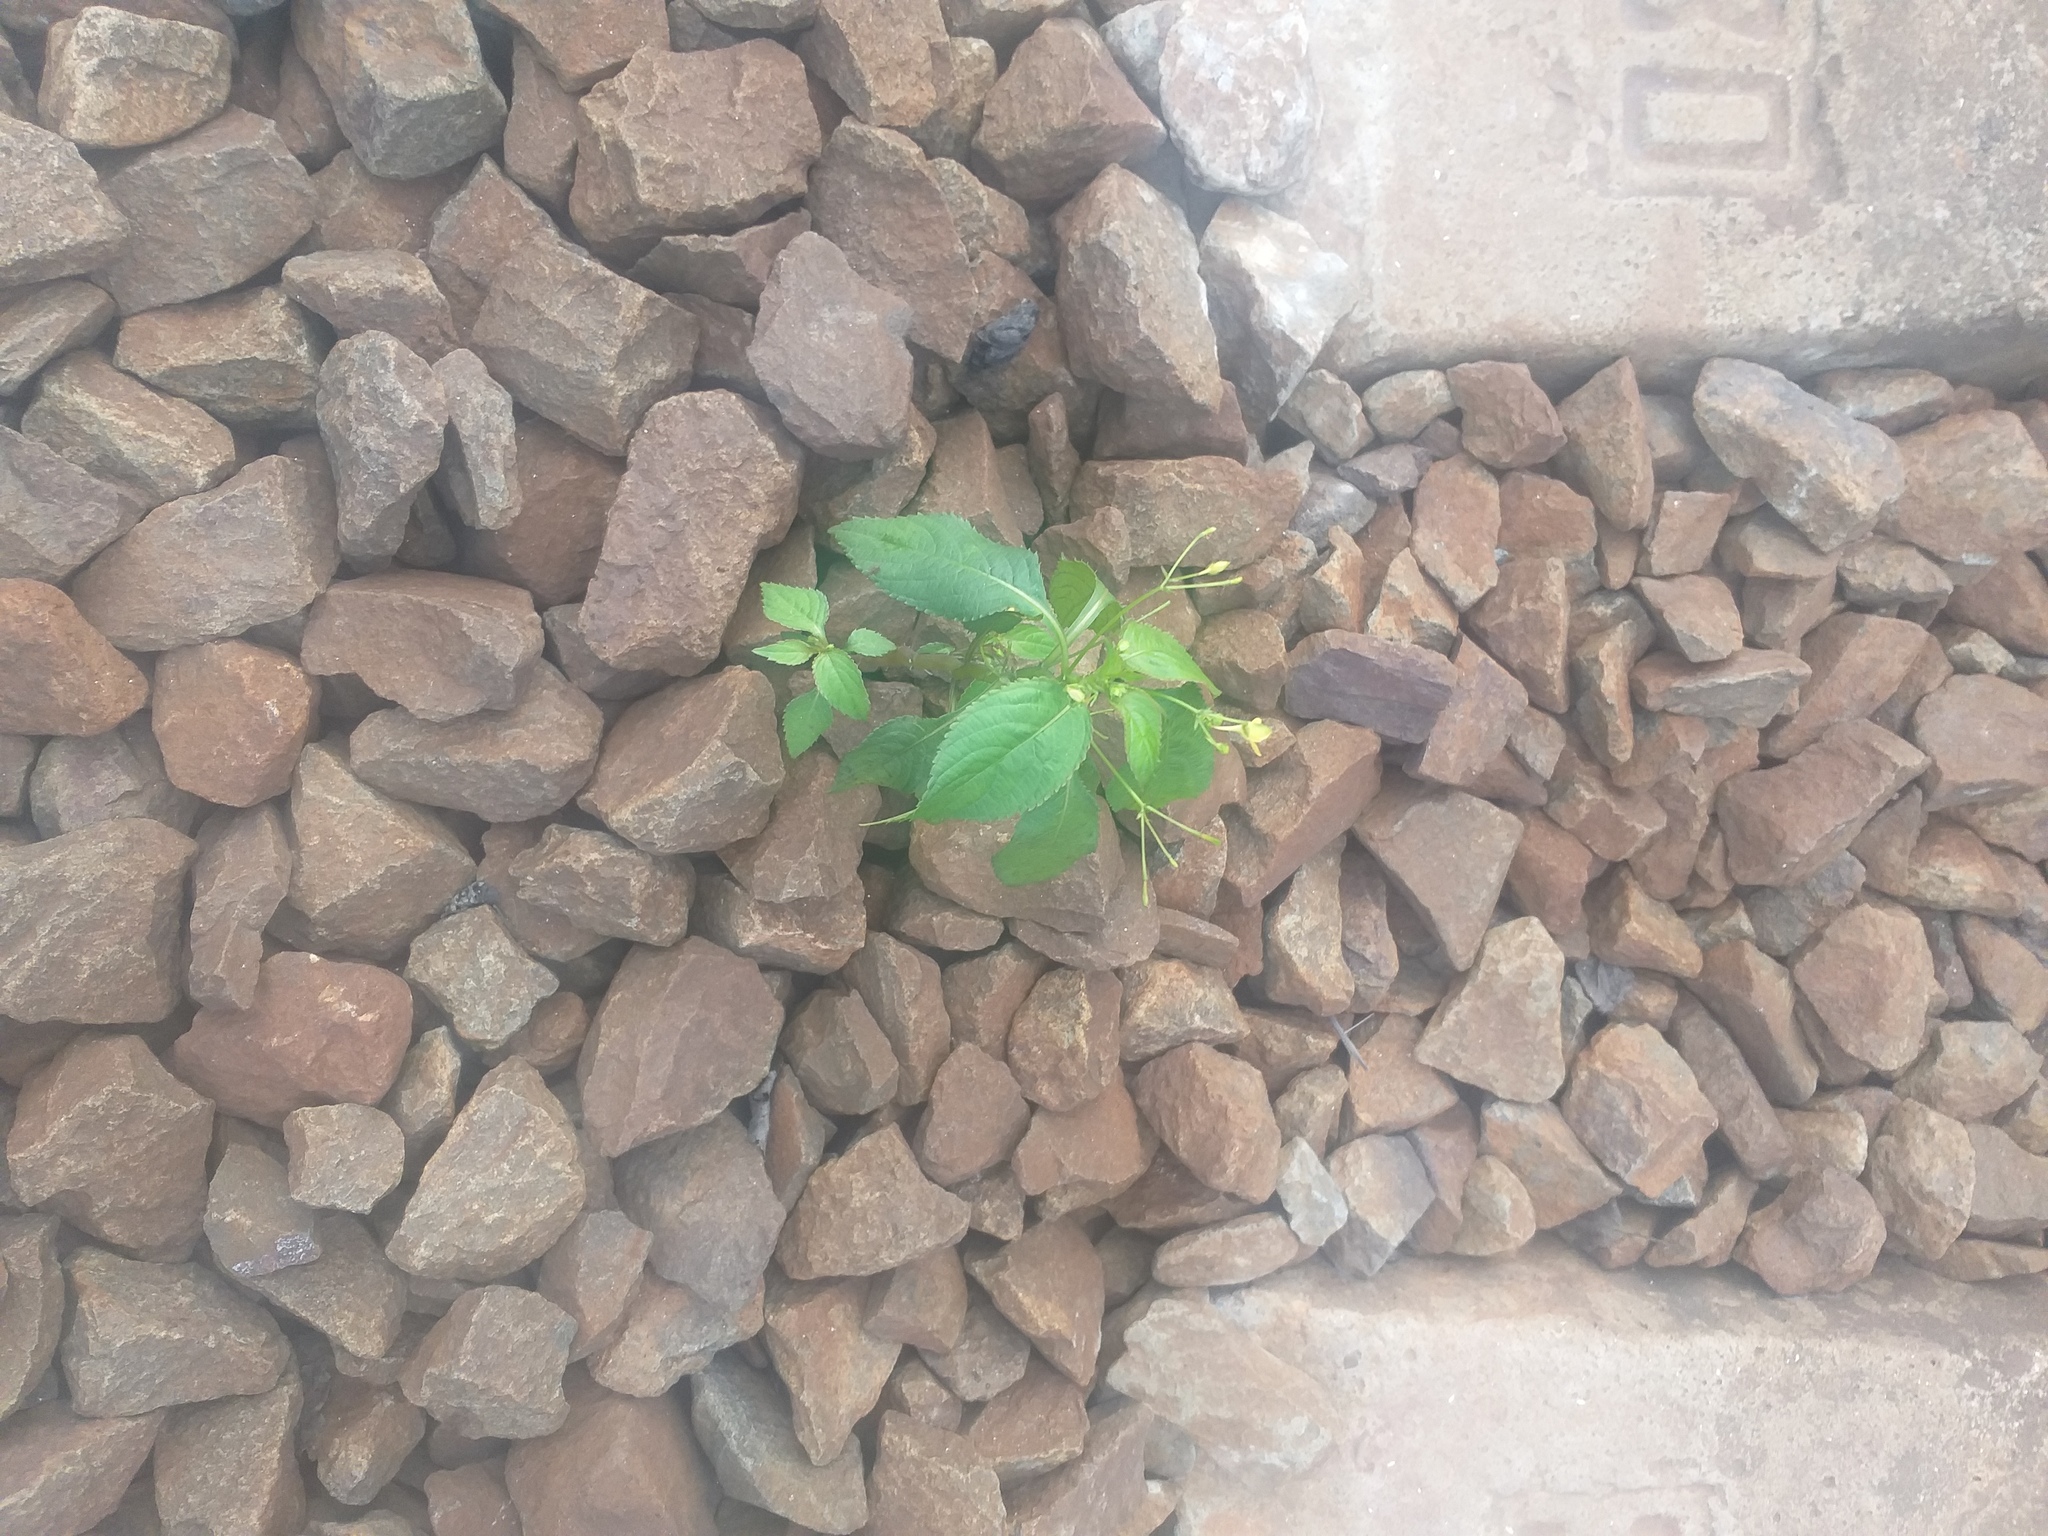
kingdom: Plantae
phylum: Tracheophyta
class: Magnoliopsida
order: Ericales
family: Balsaminaceae
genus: Impatiens
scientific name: Impatiens parviflora
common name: Small balsam
